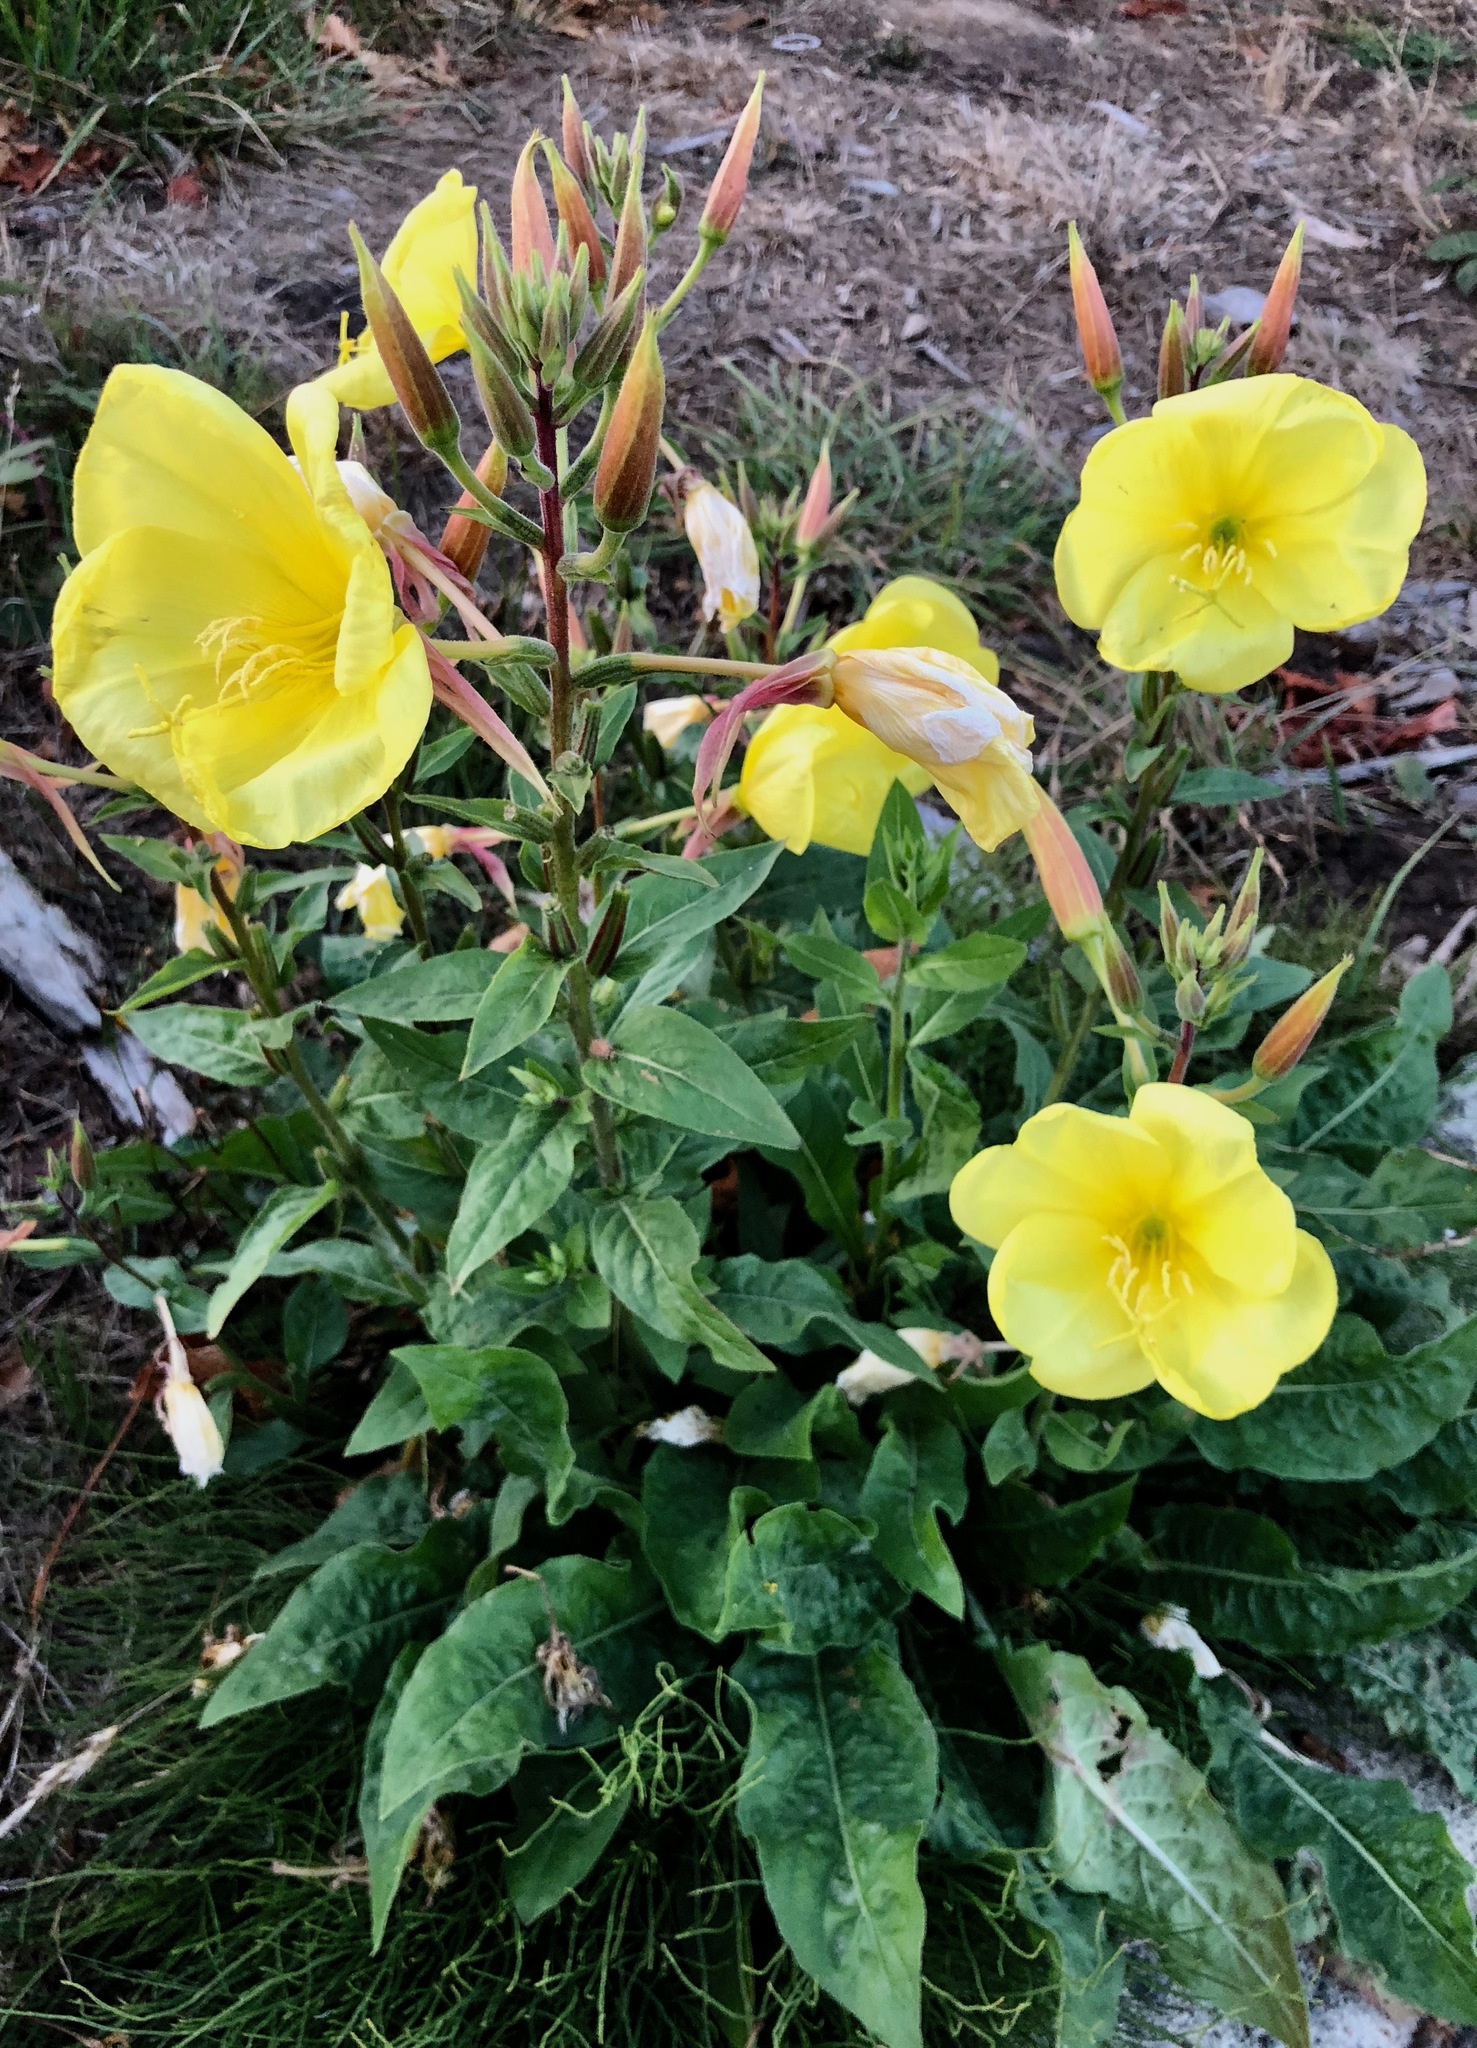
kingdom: Plantae
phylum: Tracheophyta
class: Magnoliopsida
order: Myrtales
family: Onagraceae
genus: Oenothera
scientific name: Oenothera glazioviana
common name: Large-flowered evening-primrose
